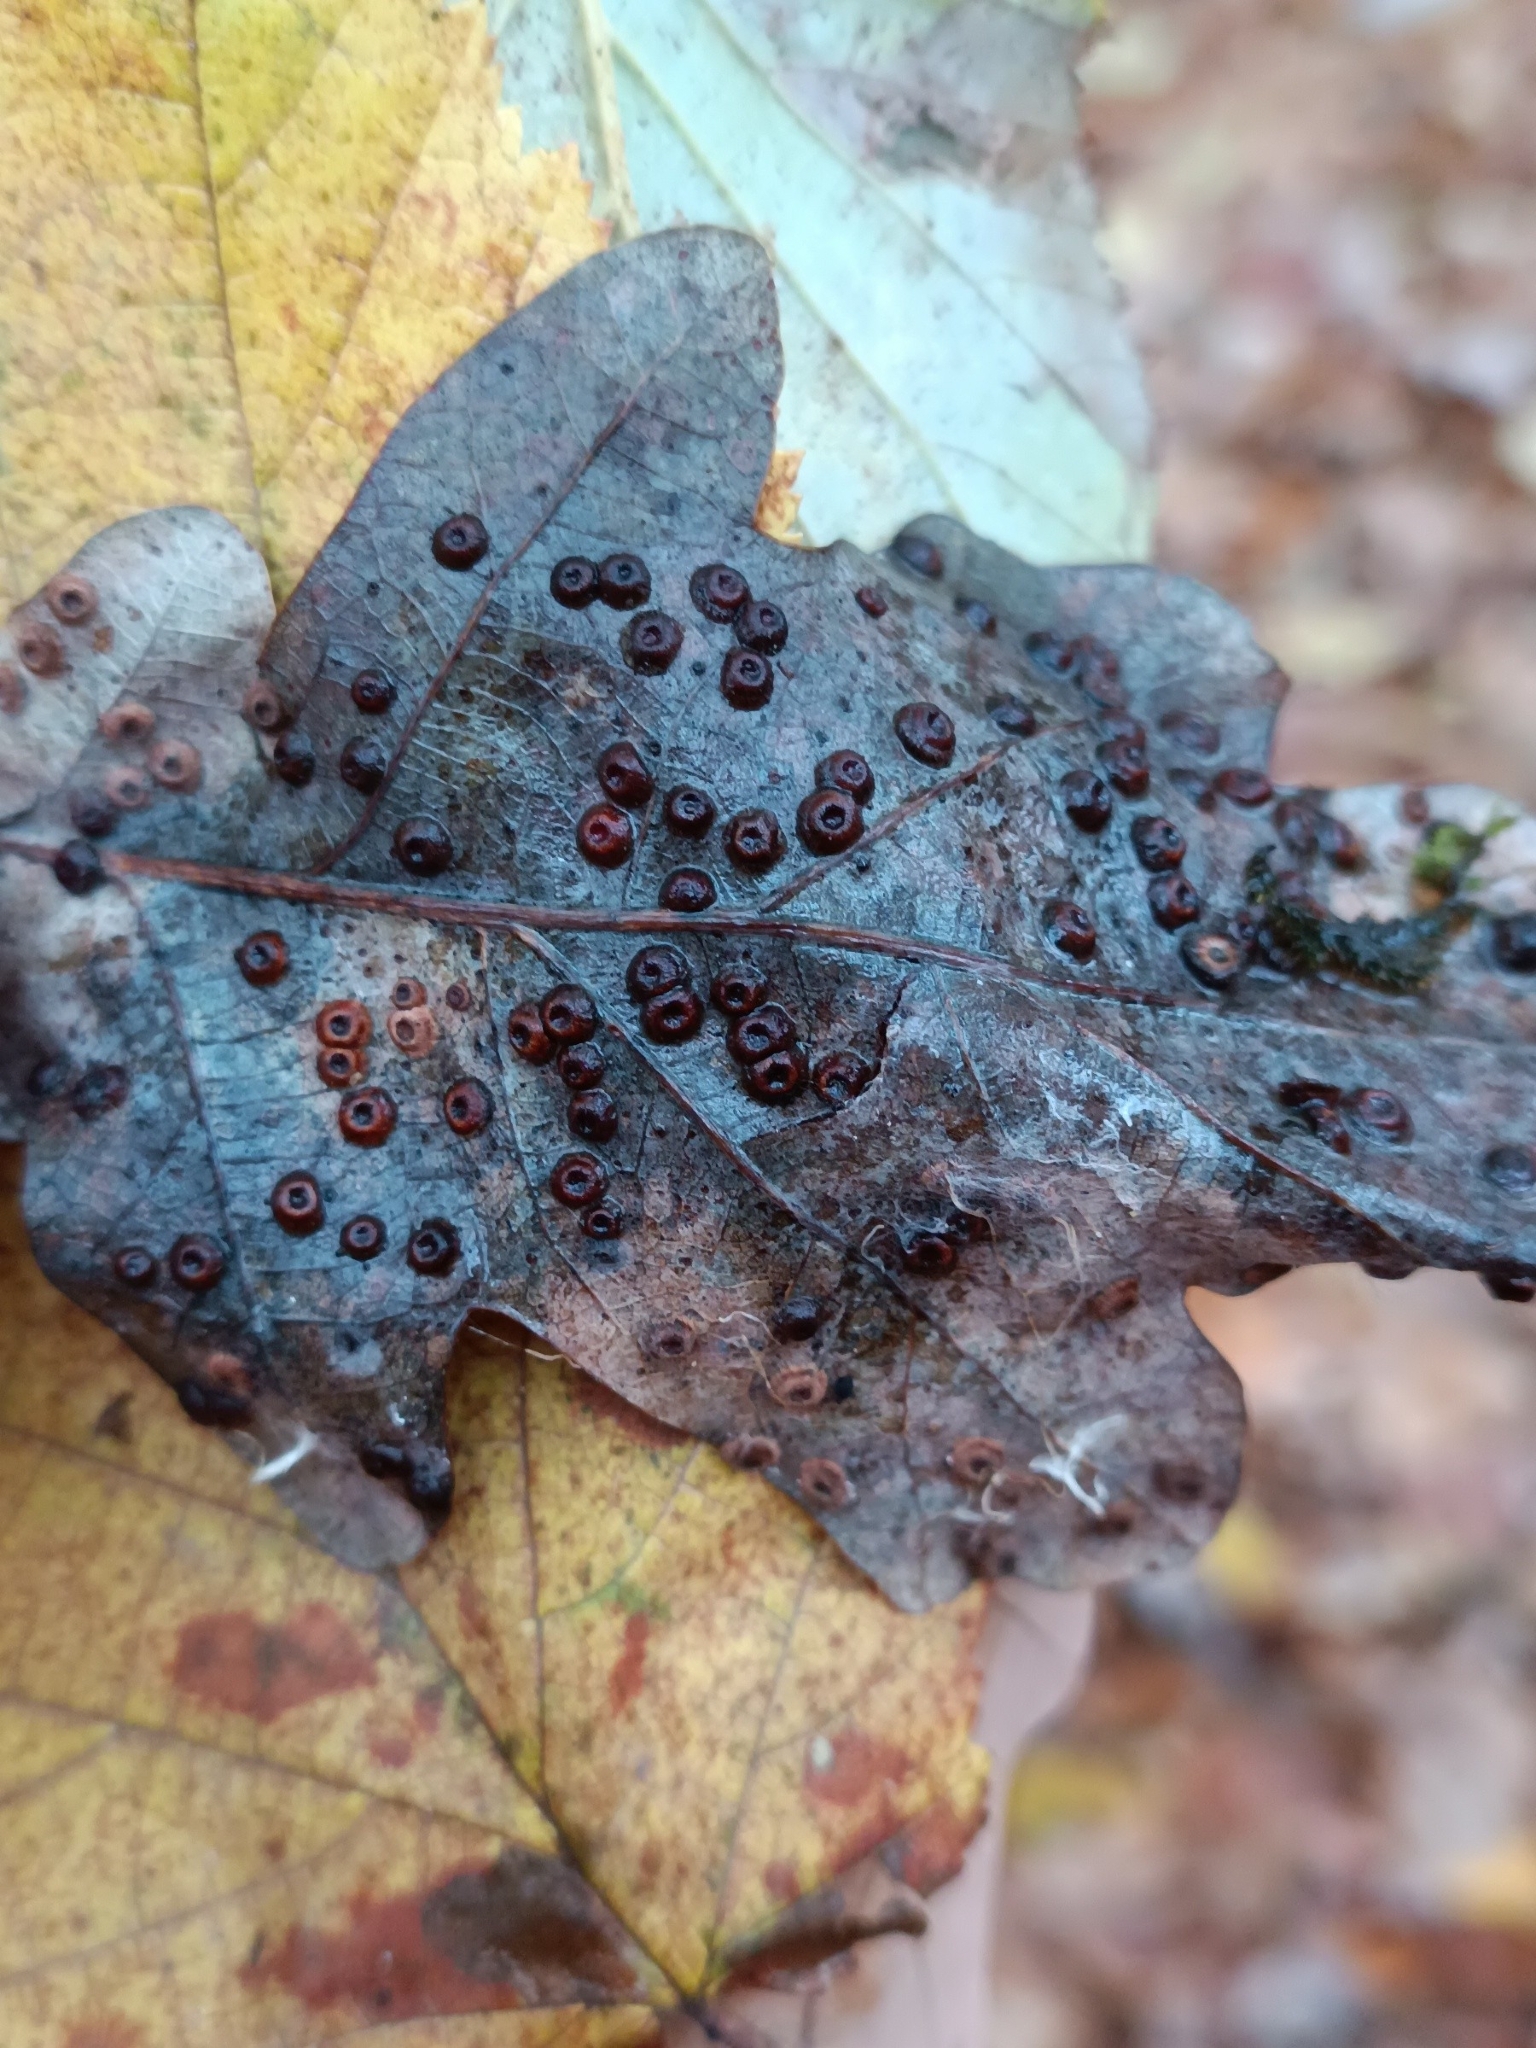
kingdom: Animalia
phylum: Arthropoda
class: Insecta
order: Hymenoptera
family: Cynipidae
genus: Neuroterus
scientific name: Neuroterus numismalis
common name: Silk-button spangle gall
